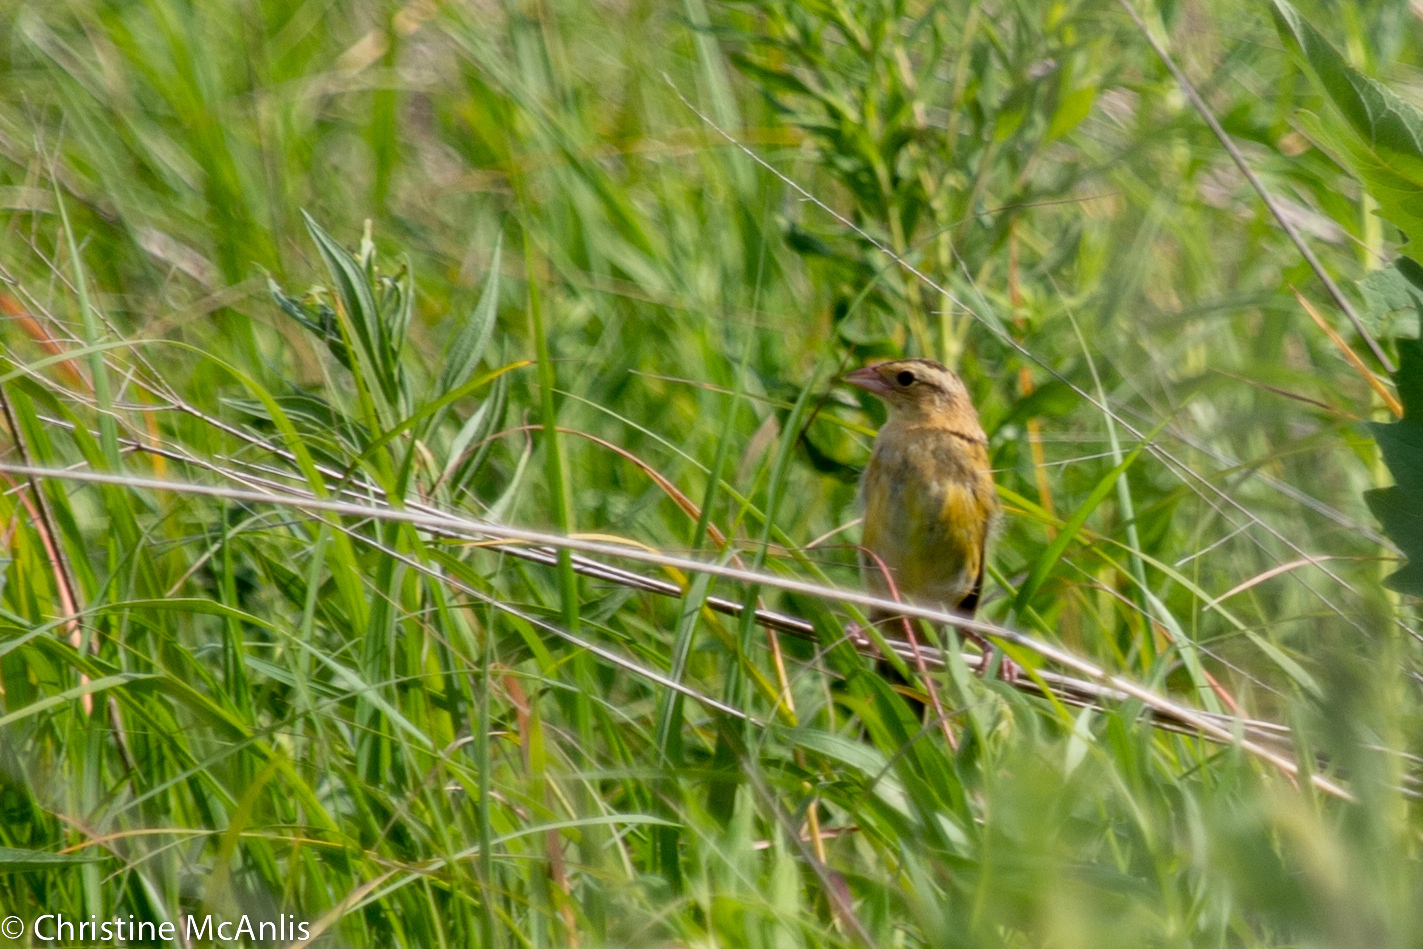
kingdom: Animalia
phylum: Chordata
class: Aves
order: Passeriformes
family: Icteridae
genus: Dolichonyx
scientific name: Dolichonyx oryzivorus
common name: Bobolink
